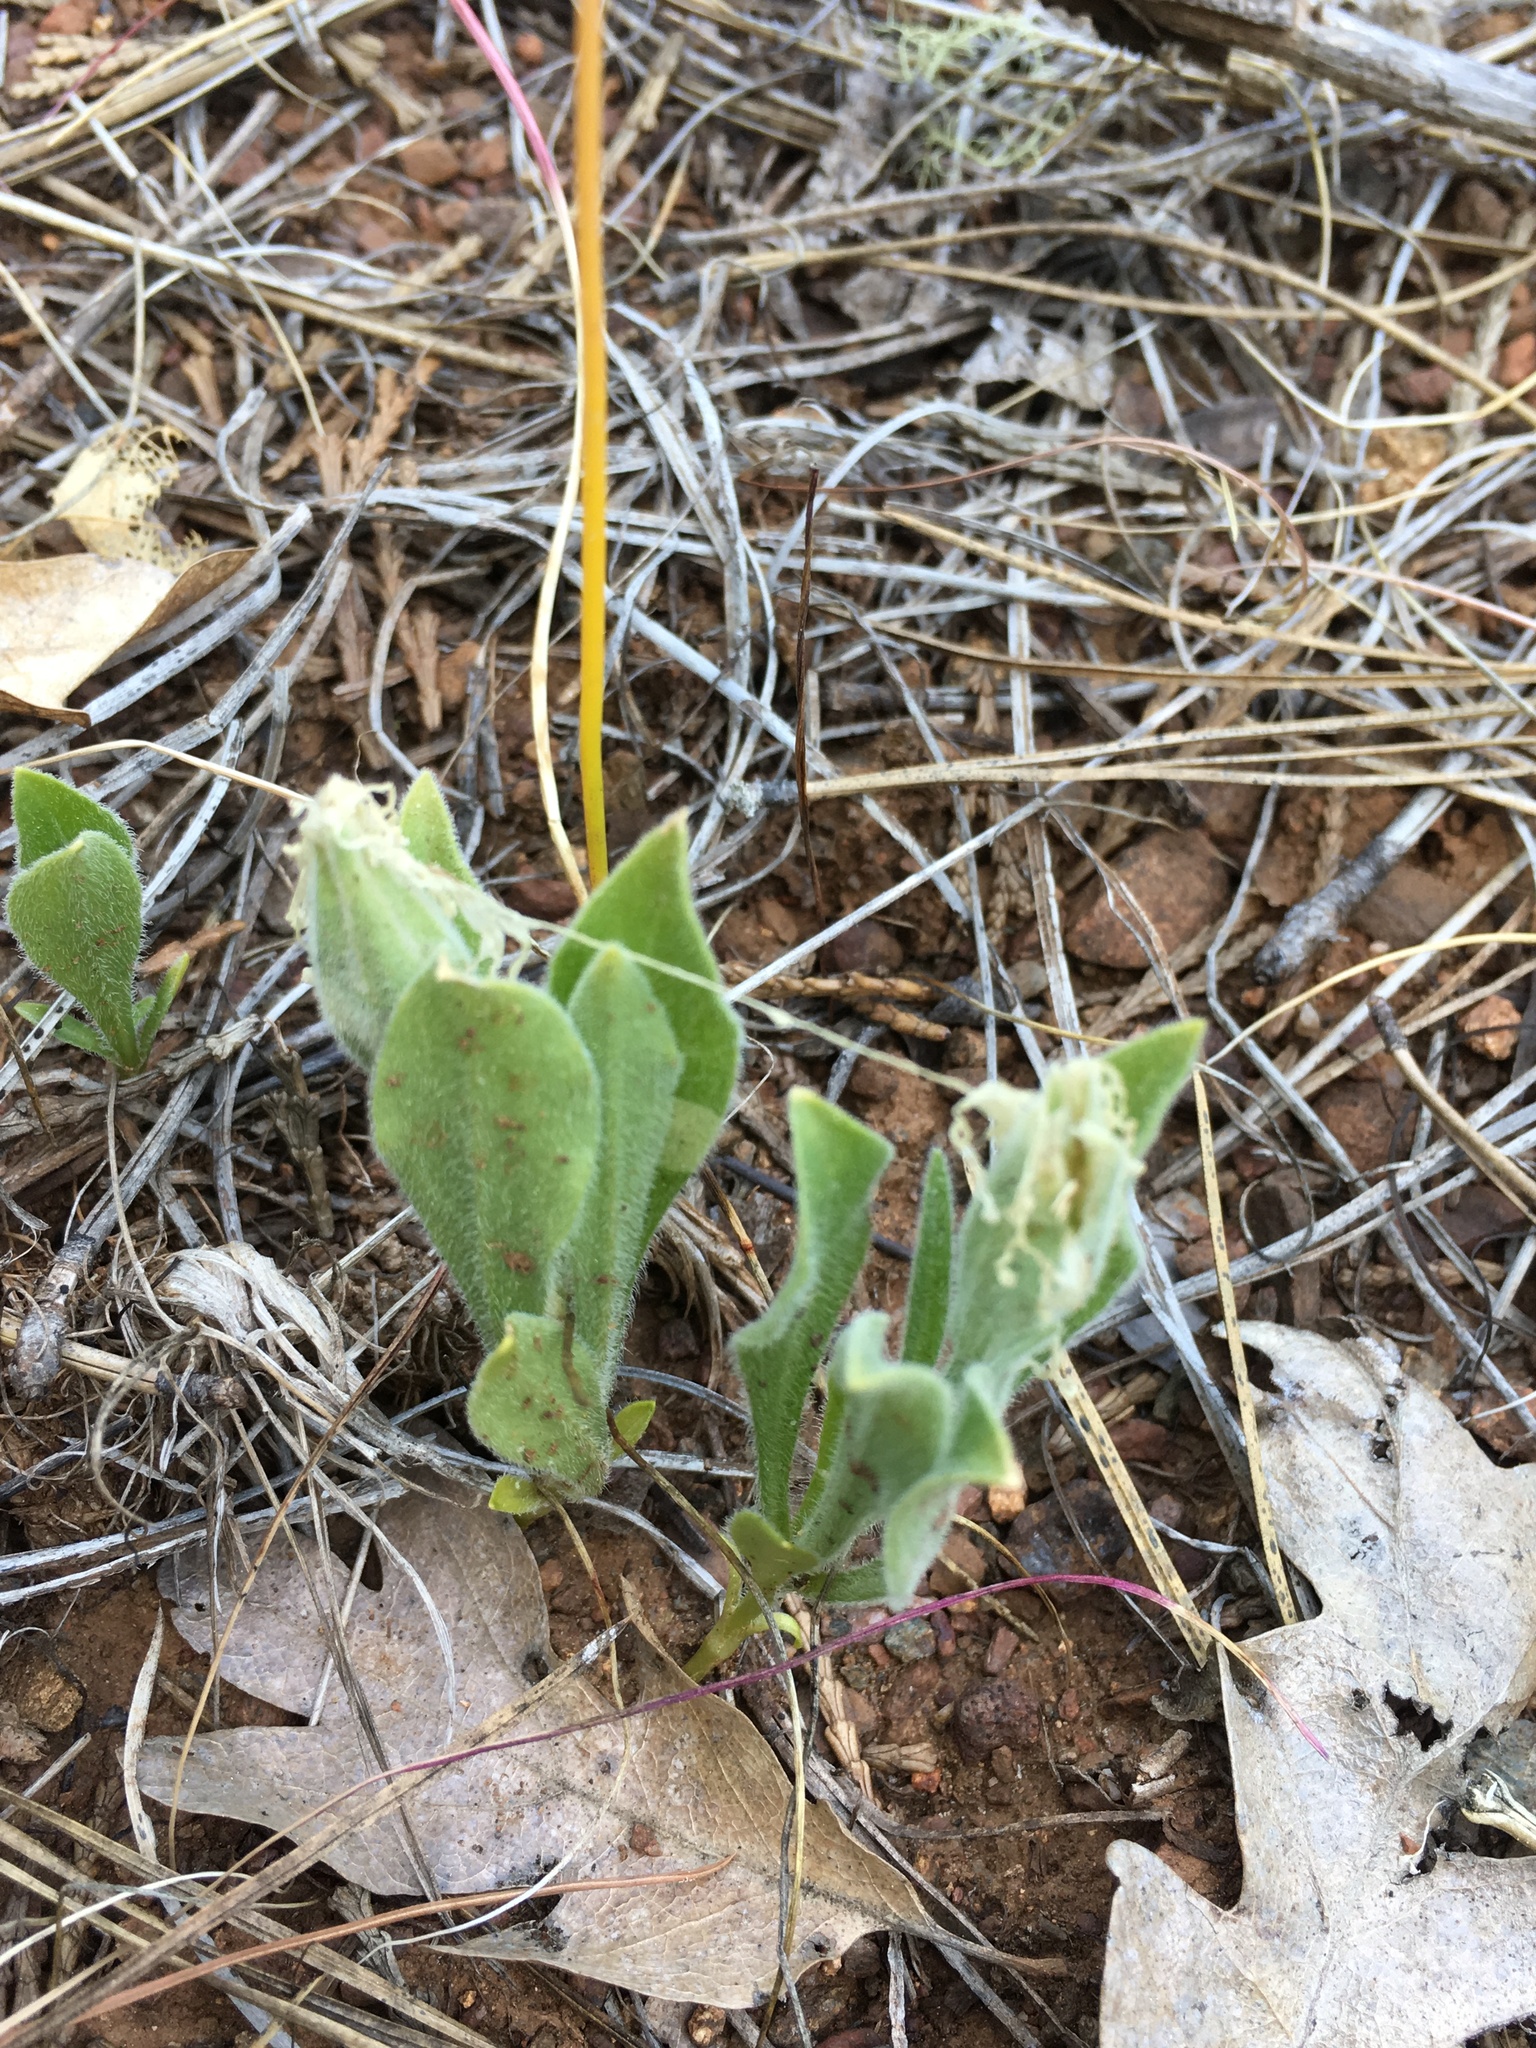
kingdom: Plantae
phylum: Tracheophyta
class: Magnoliopsida
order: Caryophyllales
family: Caryophyllaceae
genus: Silene
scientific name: Silene nelsonii
